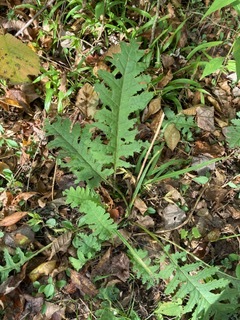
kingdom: Plantae
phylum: Tracheophyta
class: Magnoliopsida
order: Lamiales
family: Orobanchaceae
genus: Pedicularis
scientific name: Pedicularis canadensis
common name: Early lousewort
